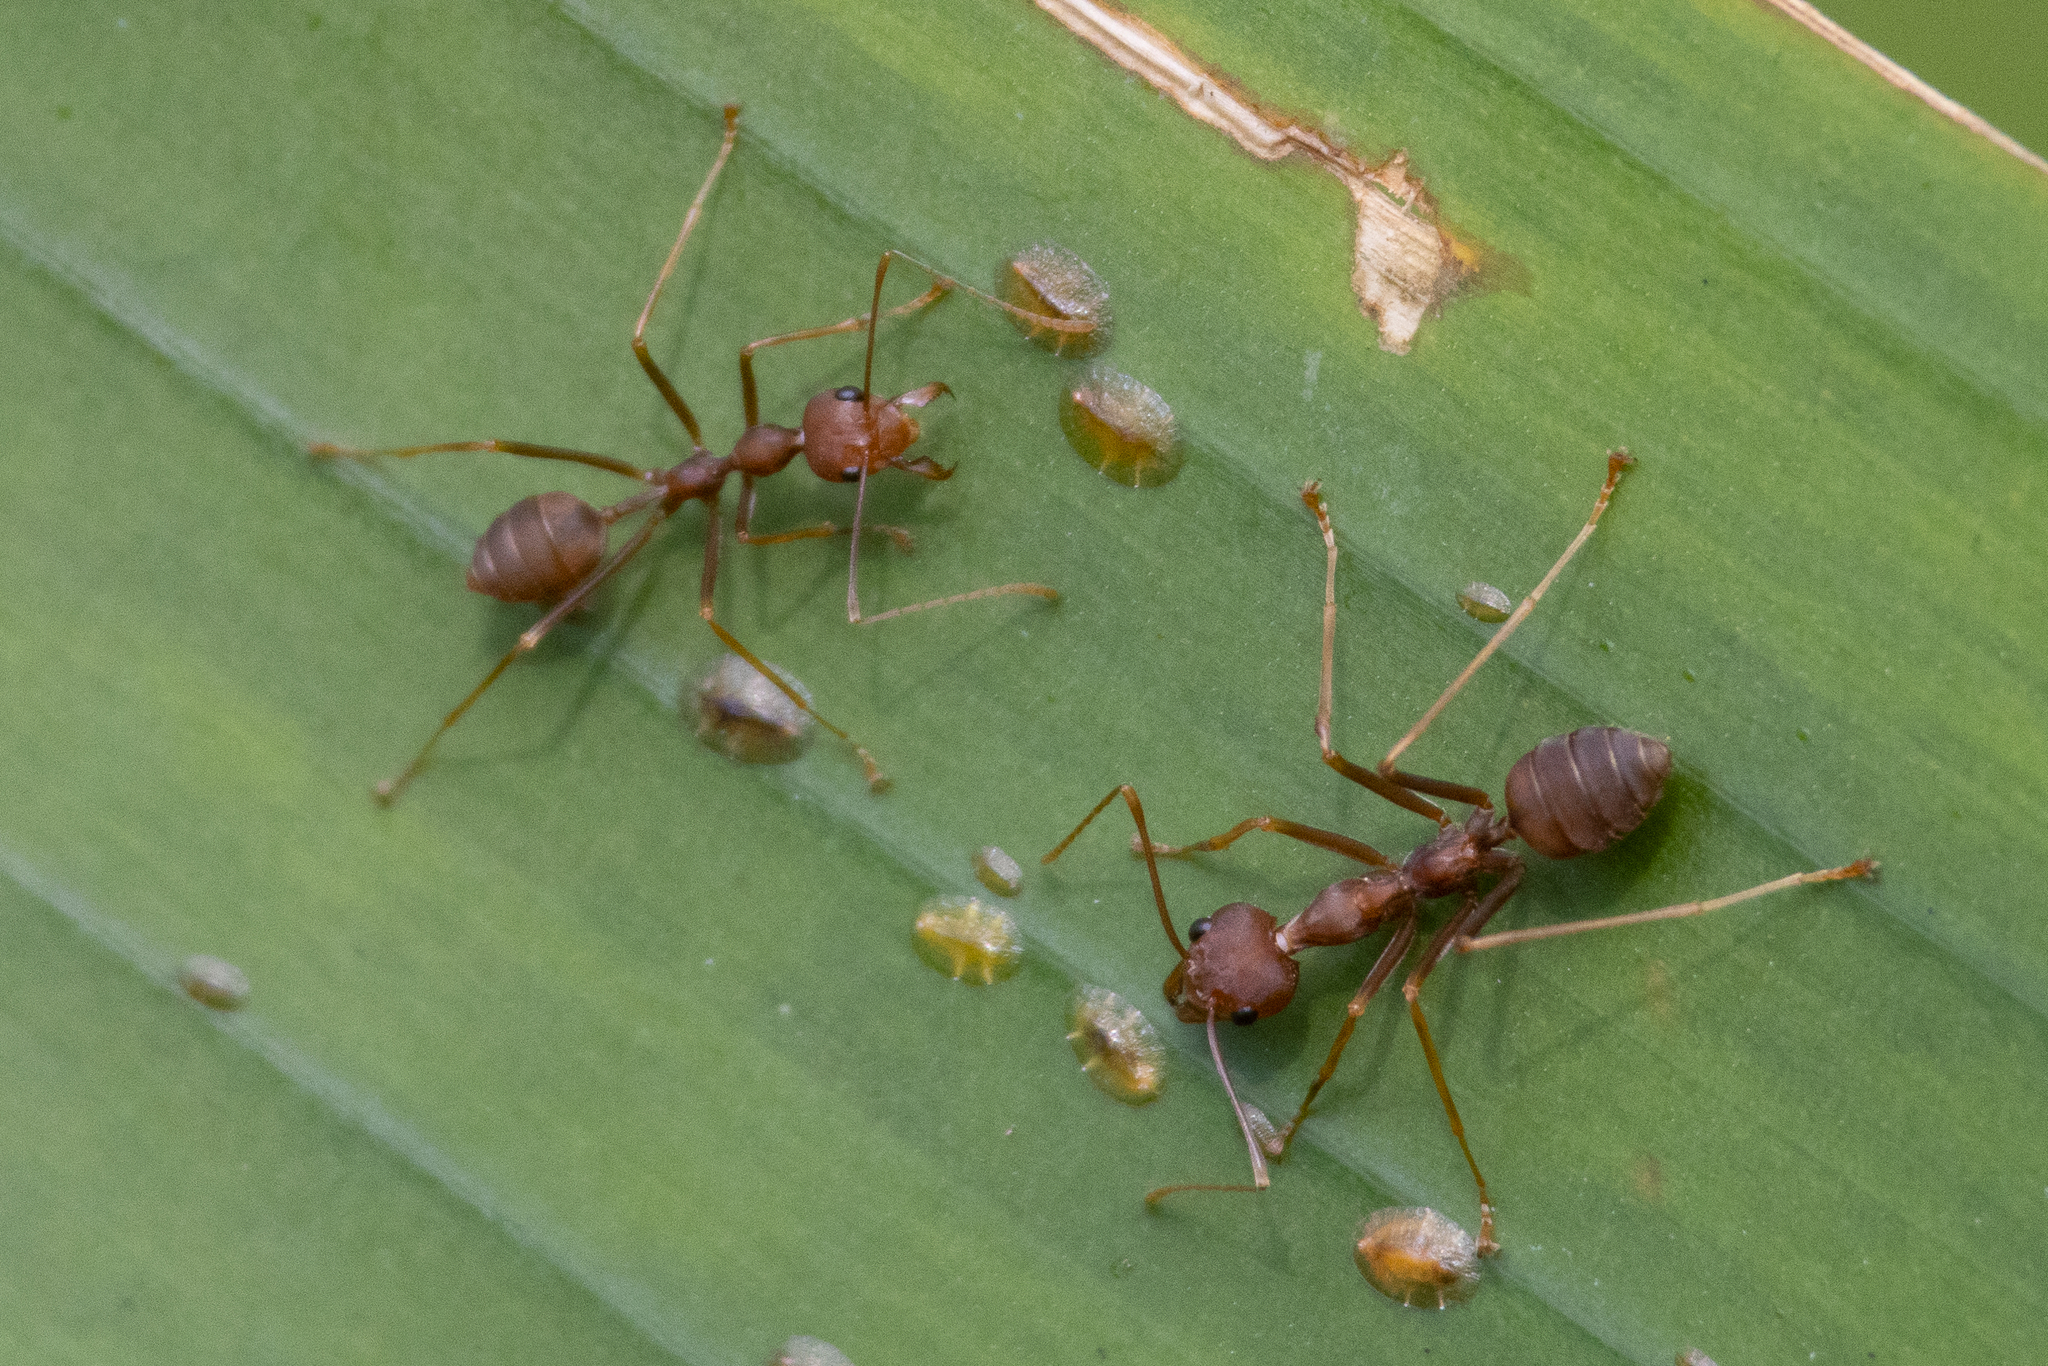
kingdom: Animalia
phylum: Arthropoda
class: Insecta
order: Hymenoptera
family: Formicidae
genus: Oecophylla
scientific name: Oecophylla smaragdina
